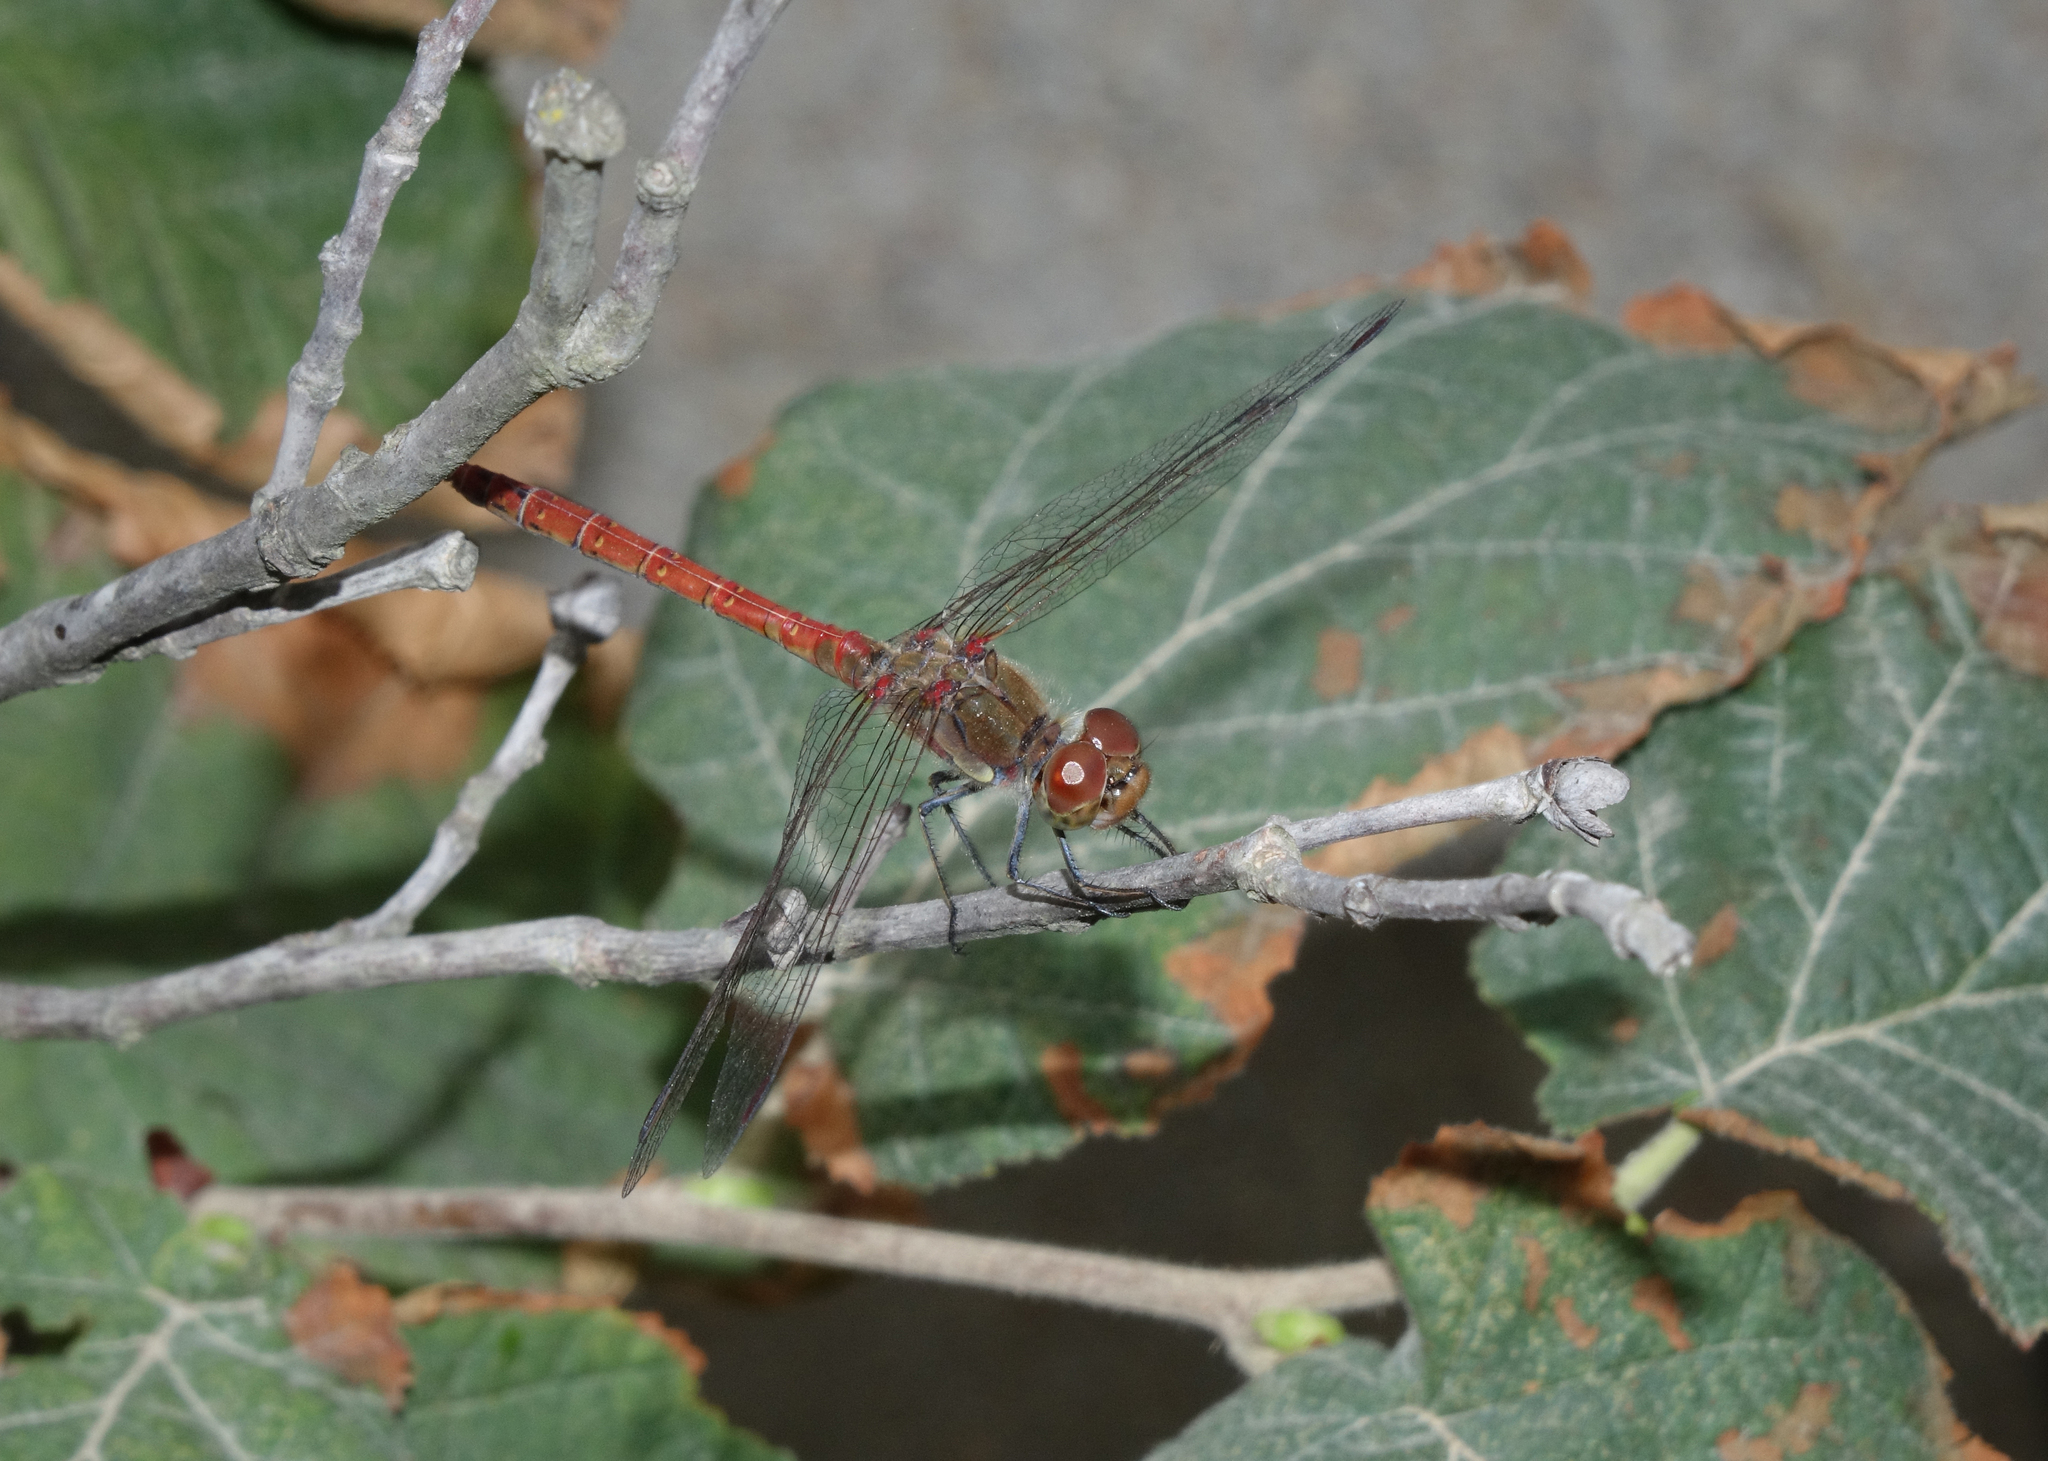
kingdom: Animalia
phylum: Arthropoda
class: Insecta
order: Odonata
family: Libellulidae
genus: Sympetrum
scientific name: Sympetrum striolatum
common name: Common darter
